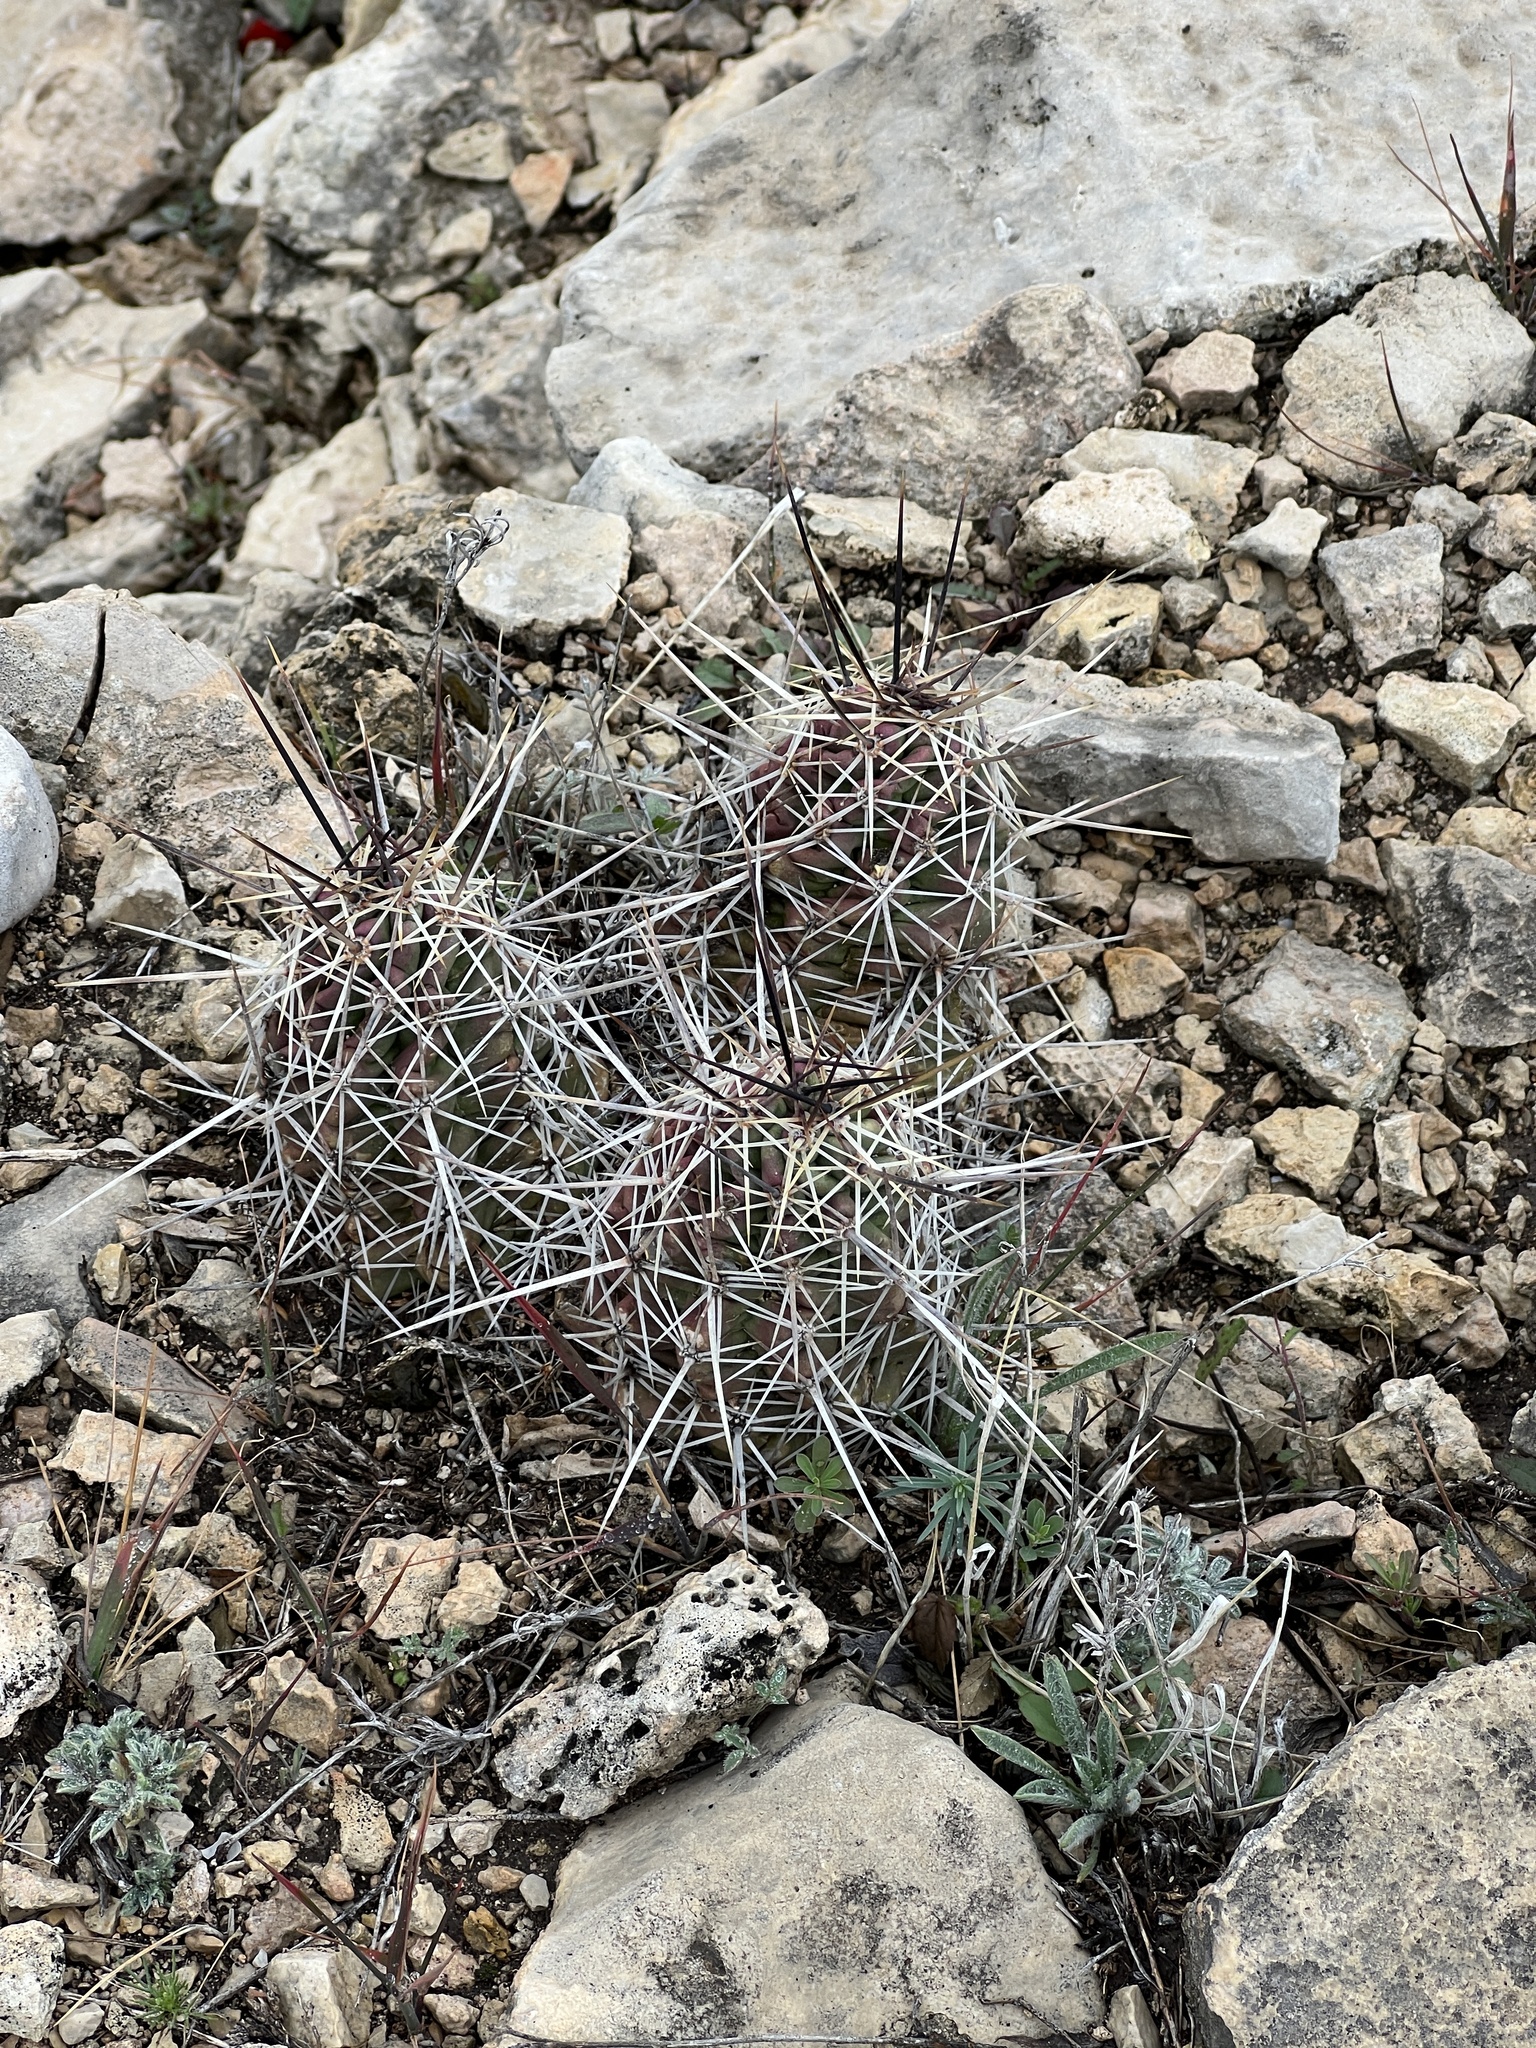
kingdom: Plantae
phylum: Tracheophyta
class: Magnoliopsida
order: Caryophyllales
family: Cactaceae
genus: Echinocereus
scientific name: Echinocereus enneacanthus
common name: Pitaya
